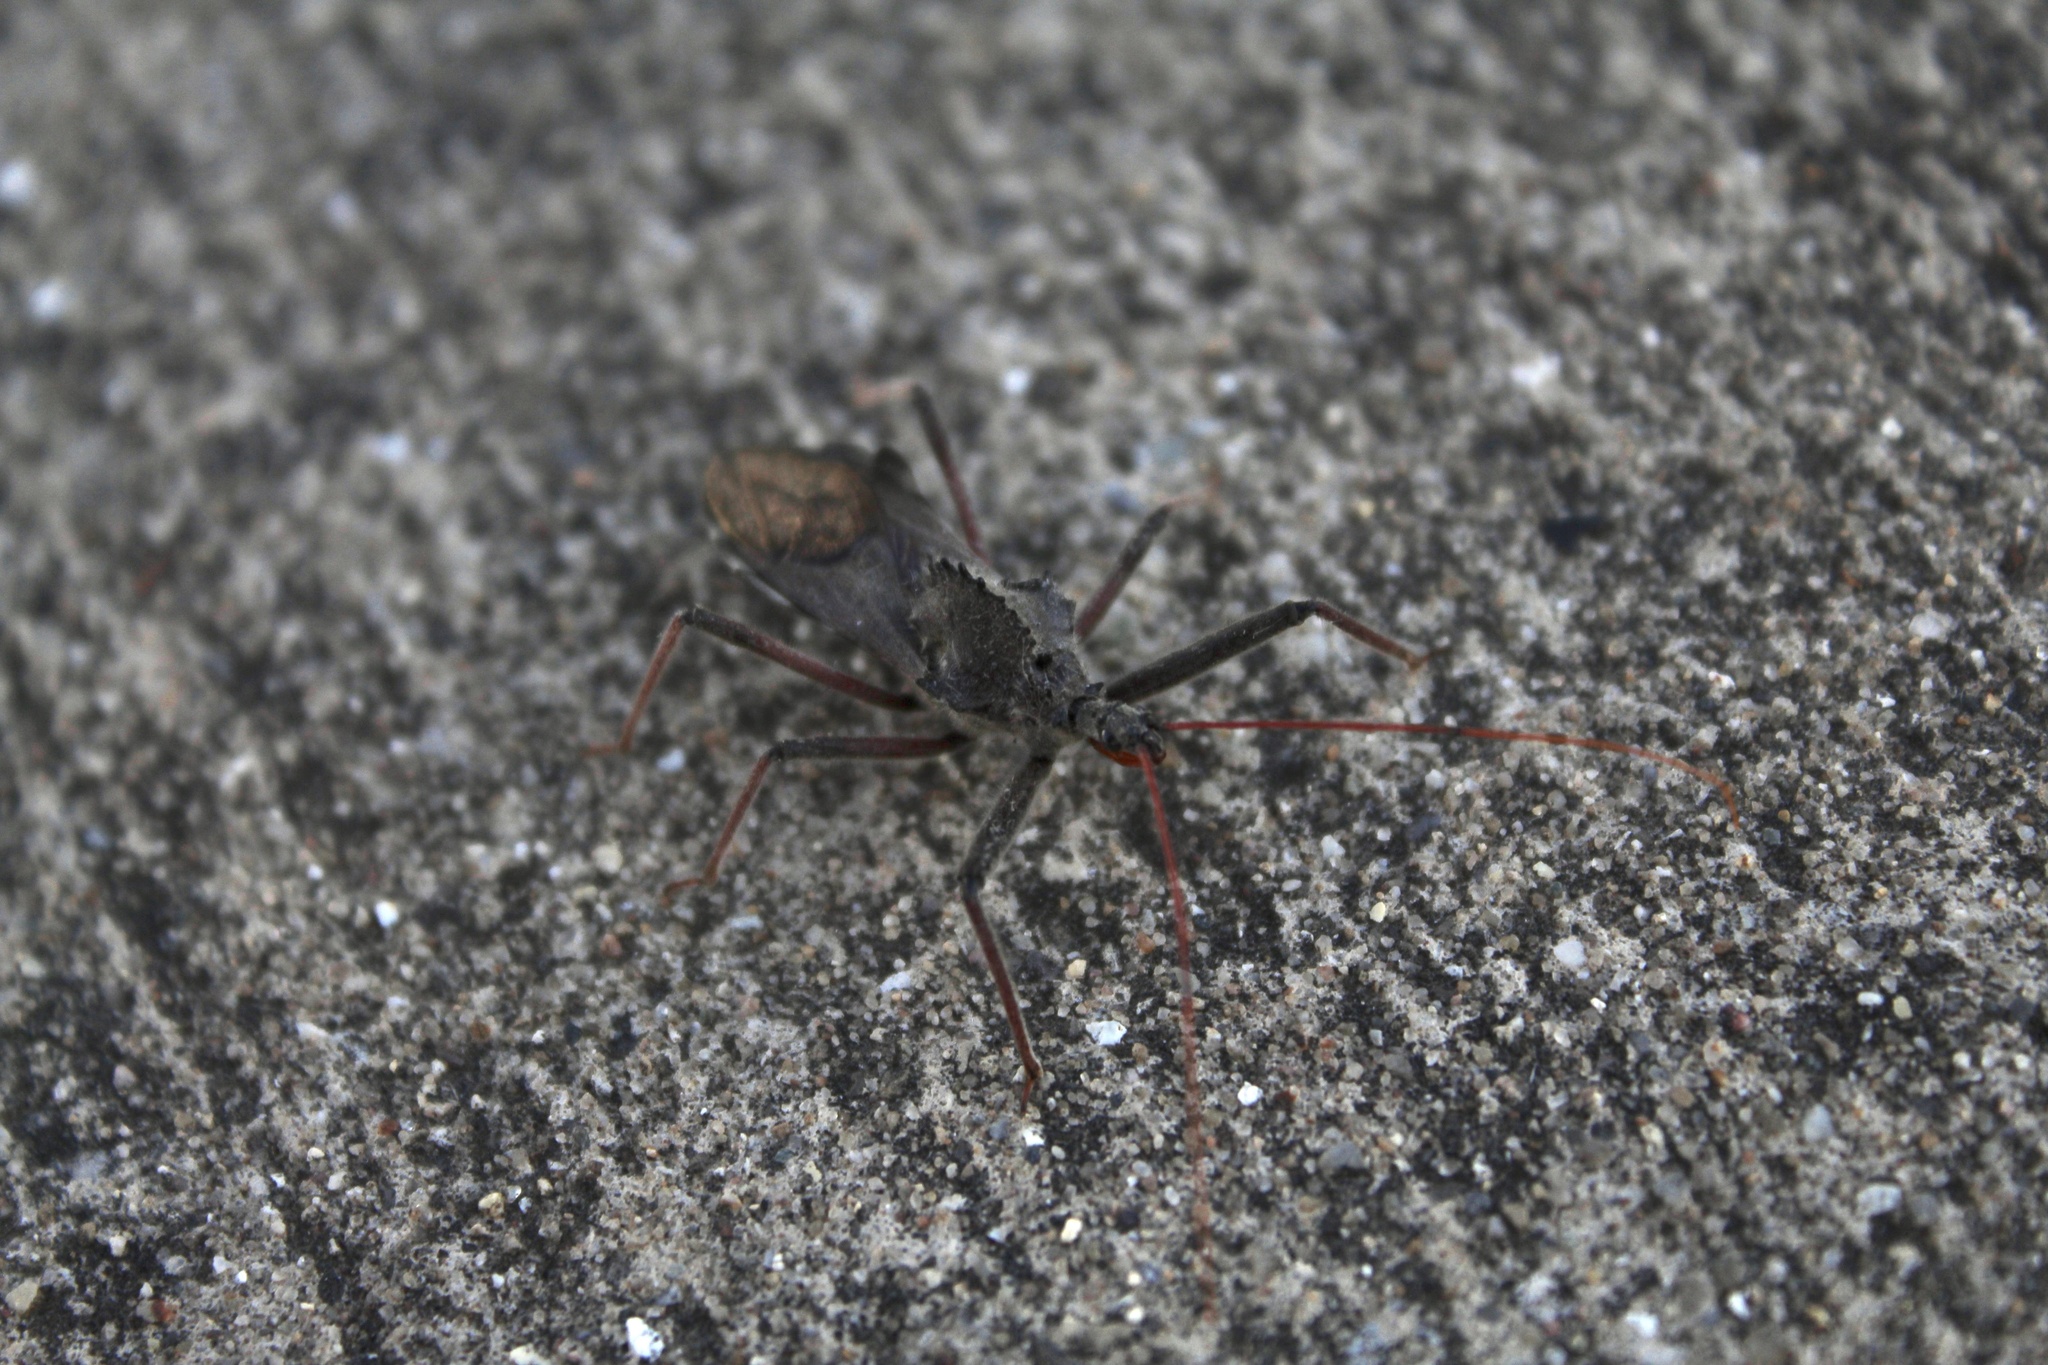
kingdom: Animalia
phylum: Arthropoda
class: Insecta
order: Hemiptera
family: Reduviidae
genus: Arilus
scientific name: Arilus cristatus
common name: North american wheel bug
